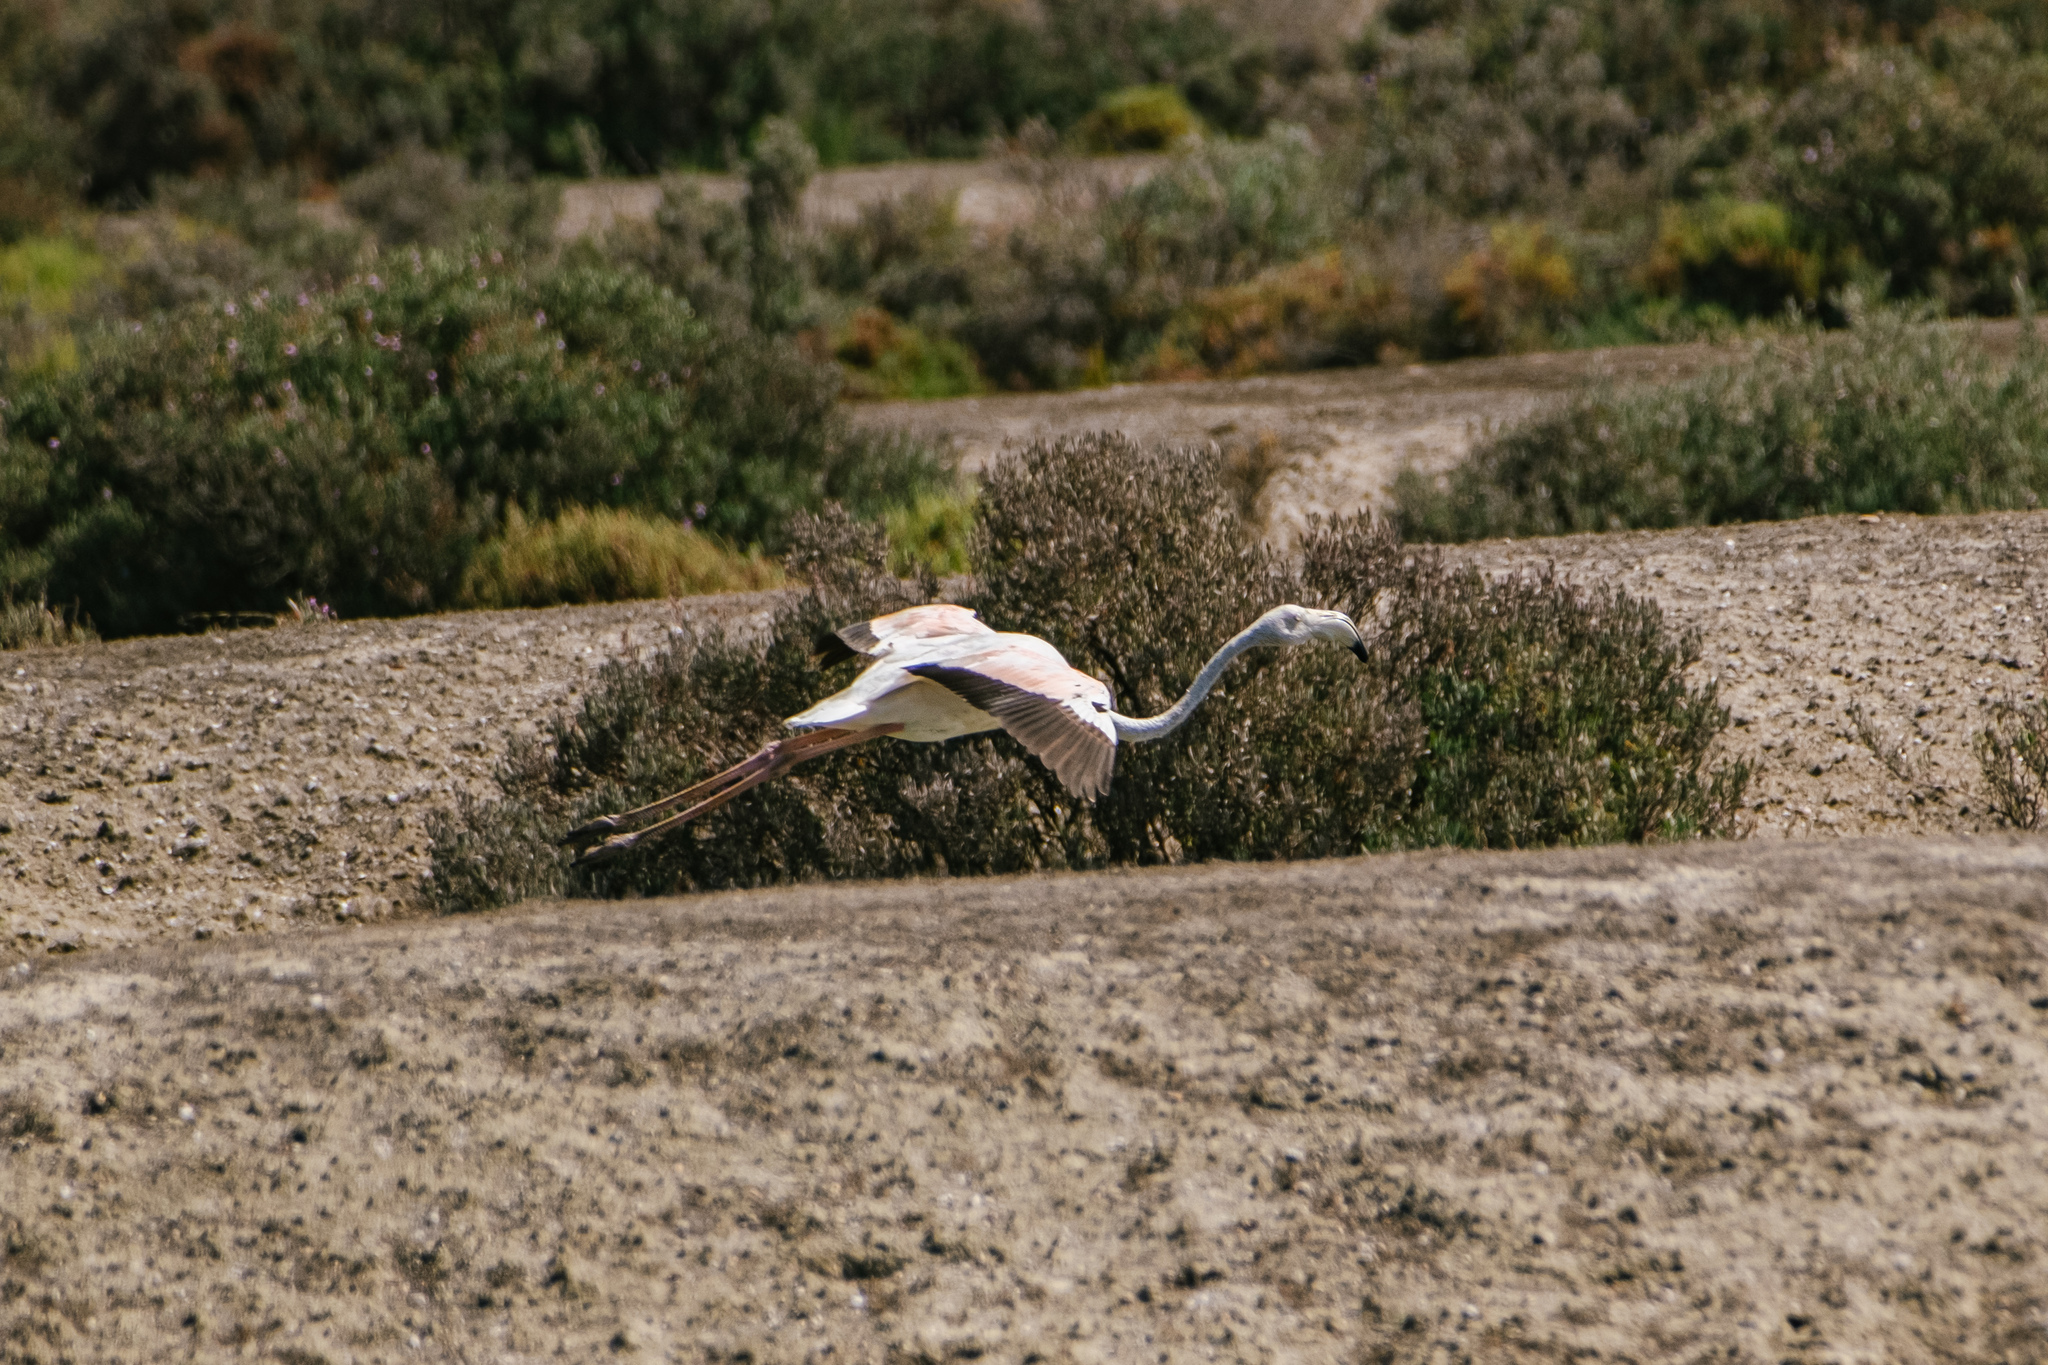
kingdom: Animalia
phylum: Chordata
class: Aves
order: Phoenicopteriformes
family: Phoenicopteridae
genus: Phoenicopterus
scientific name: Phoenicopterus roseus
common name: Greater flamingo
